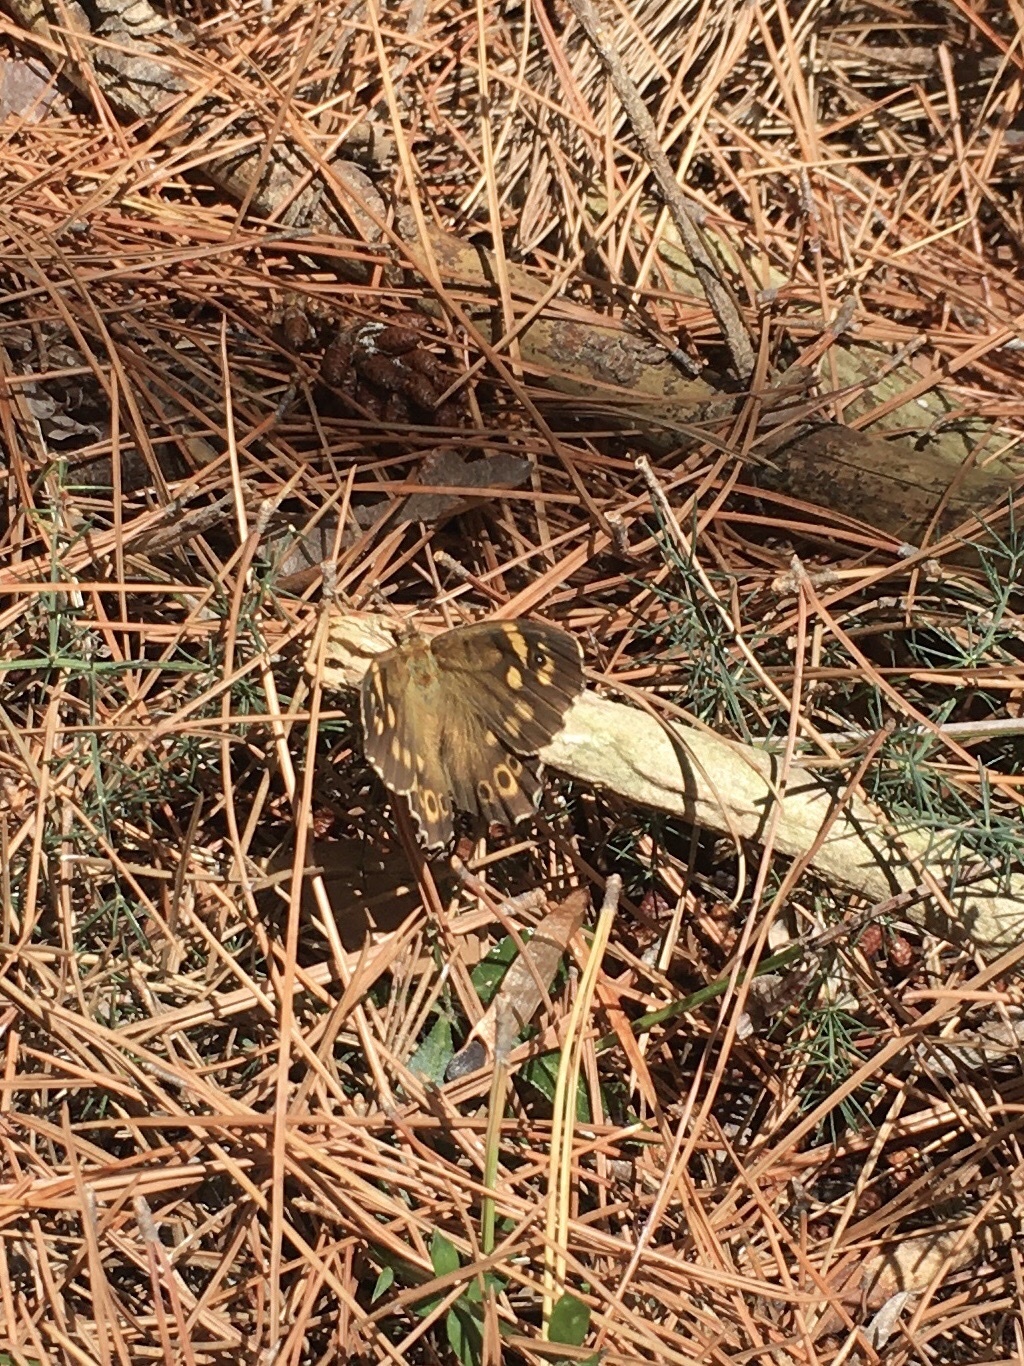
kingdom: Animalia
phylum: Arthropoda
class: Insecta
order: Lepidoptera
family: Nymphalidae
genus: Pararge
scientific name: Pararge aegeria
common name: Speckled wood
